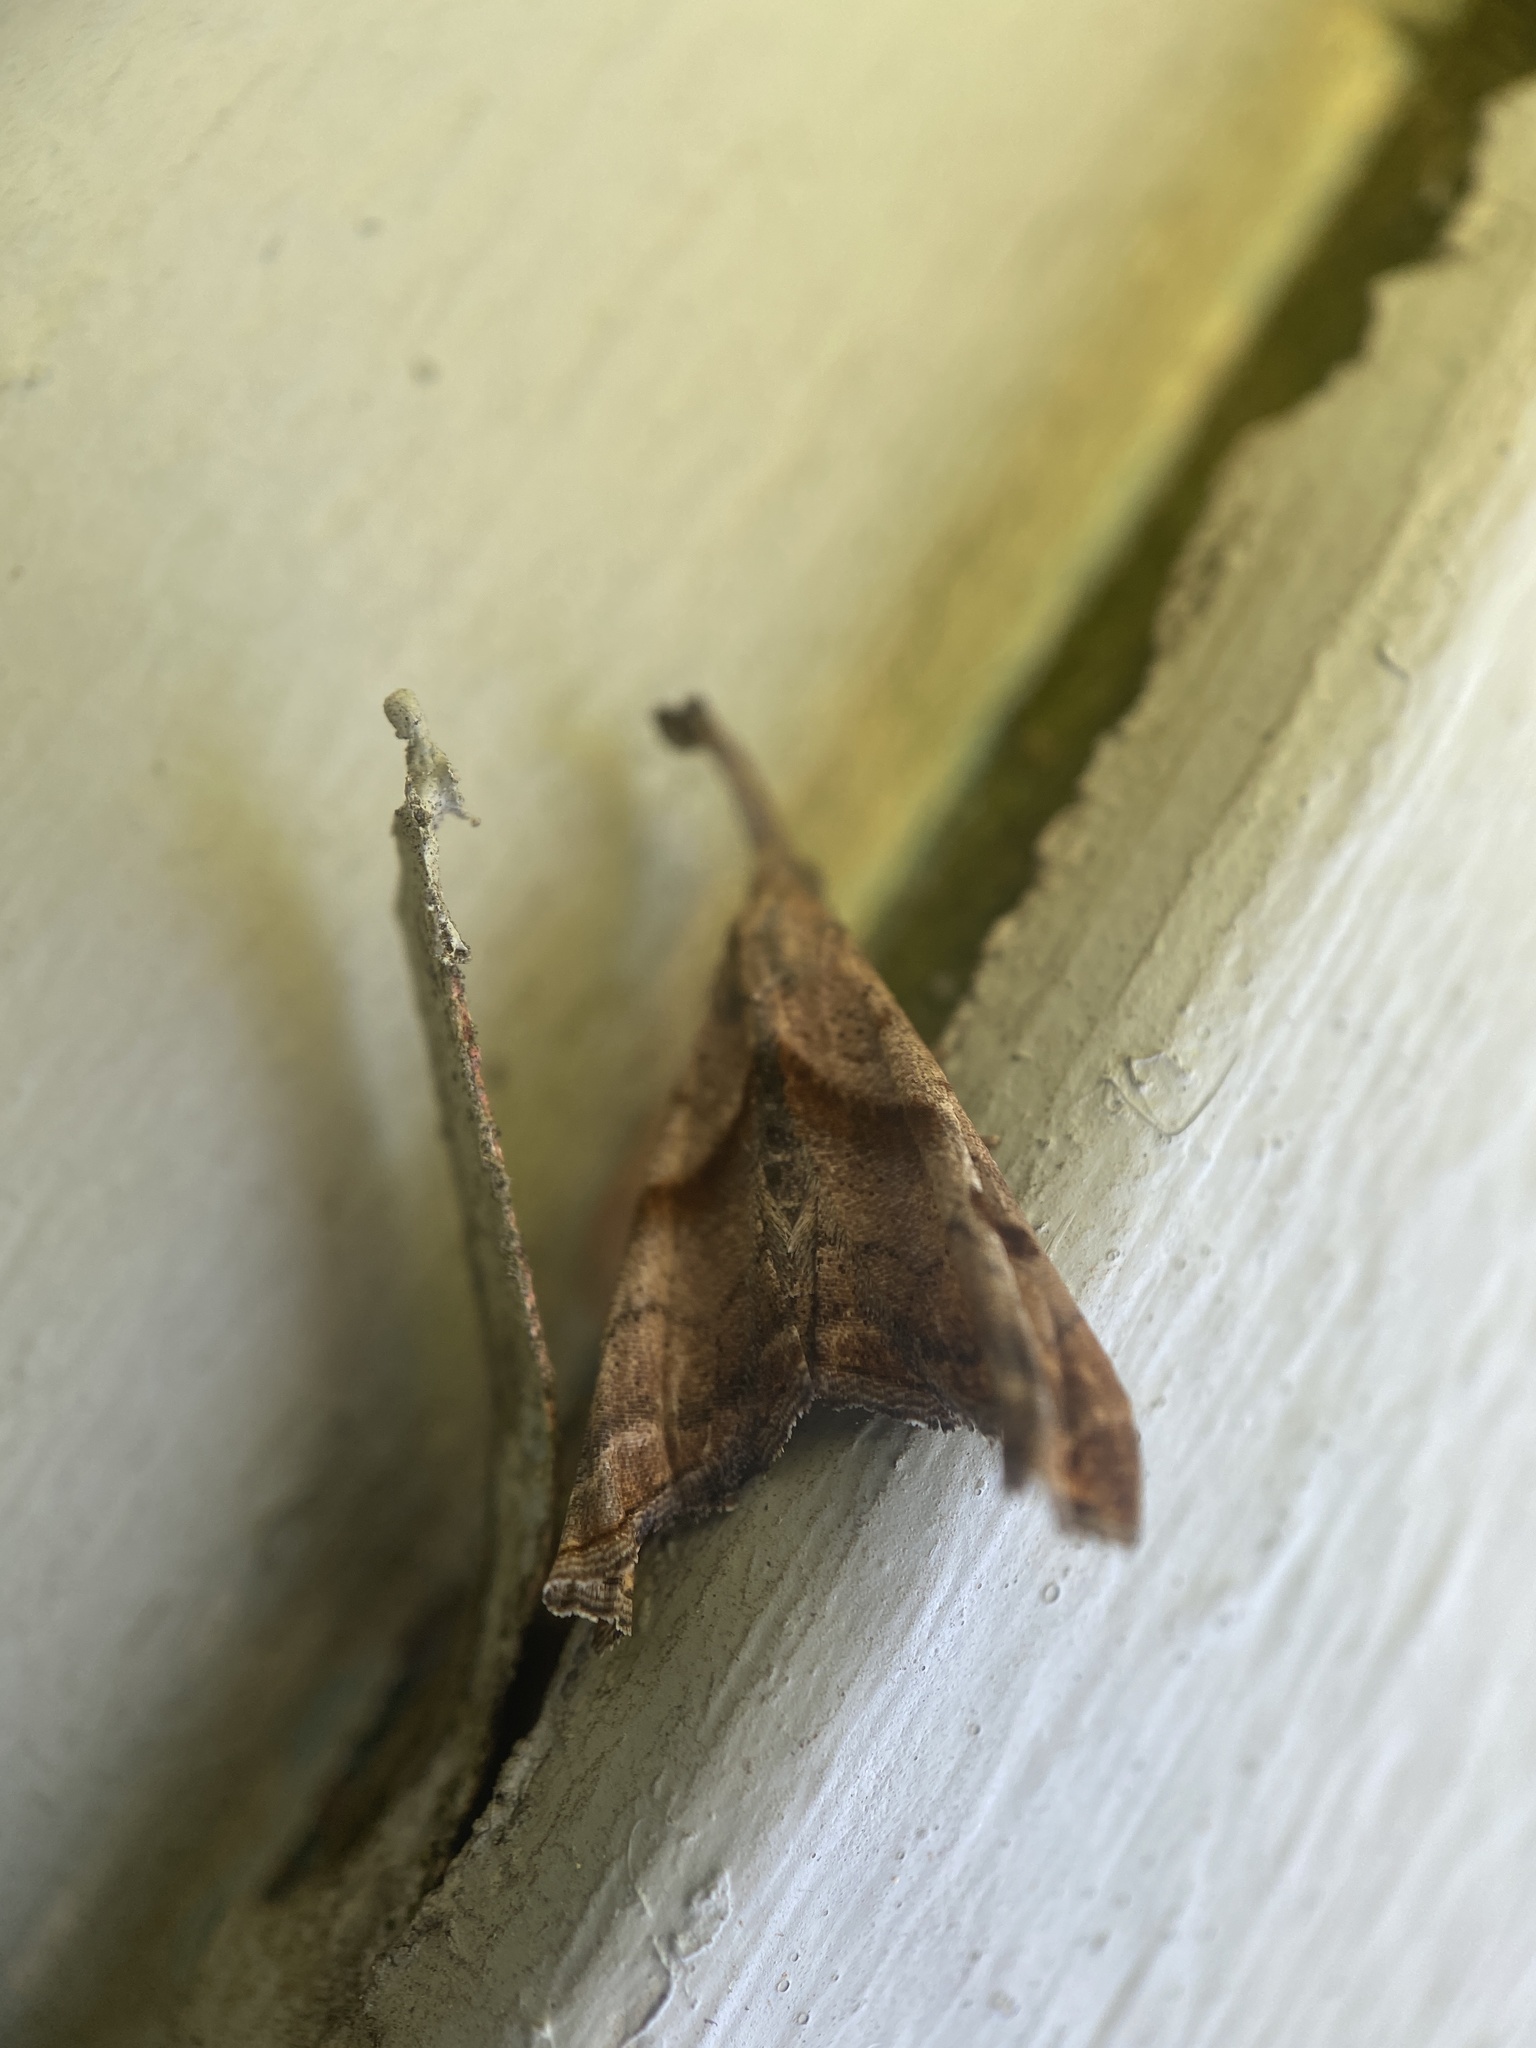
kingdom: Animalia
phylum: Arthropoda
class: Insecta
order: Lepidoptera
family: Erebidae
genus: Palthis
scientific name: Palthis angulalis
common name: Dark-spotted palthis moth
